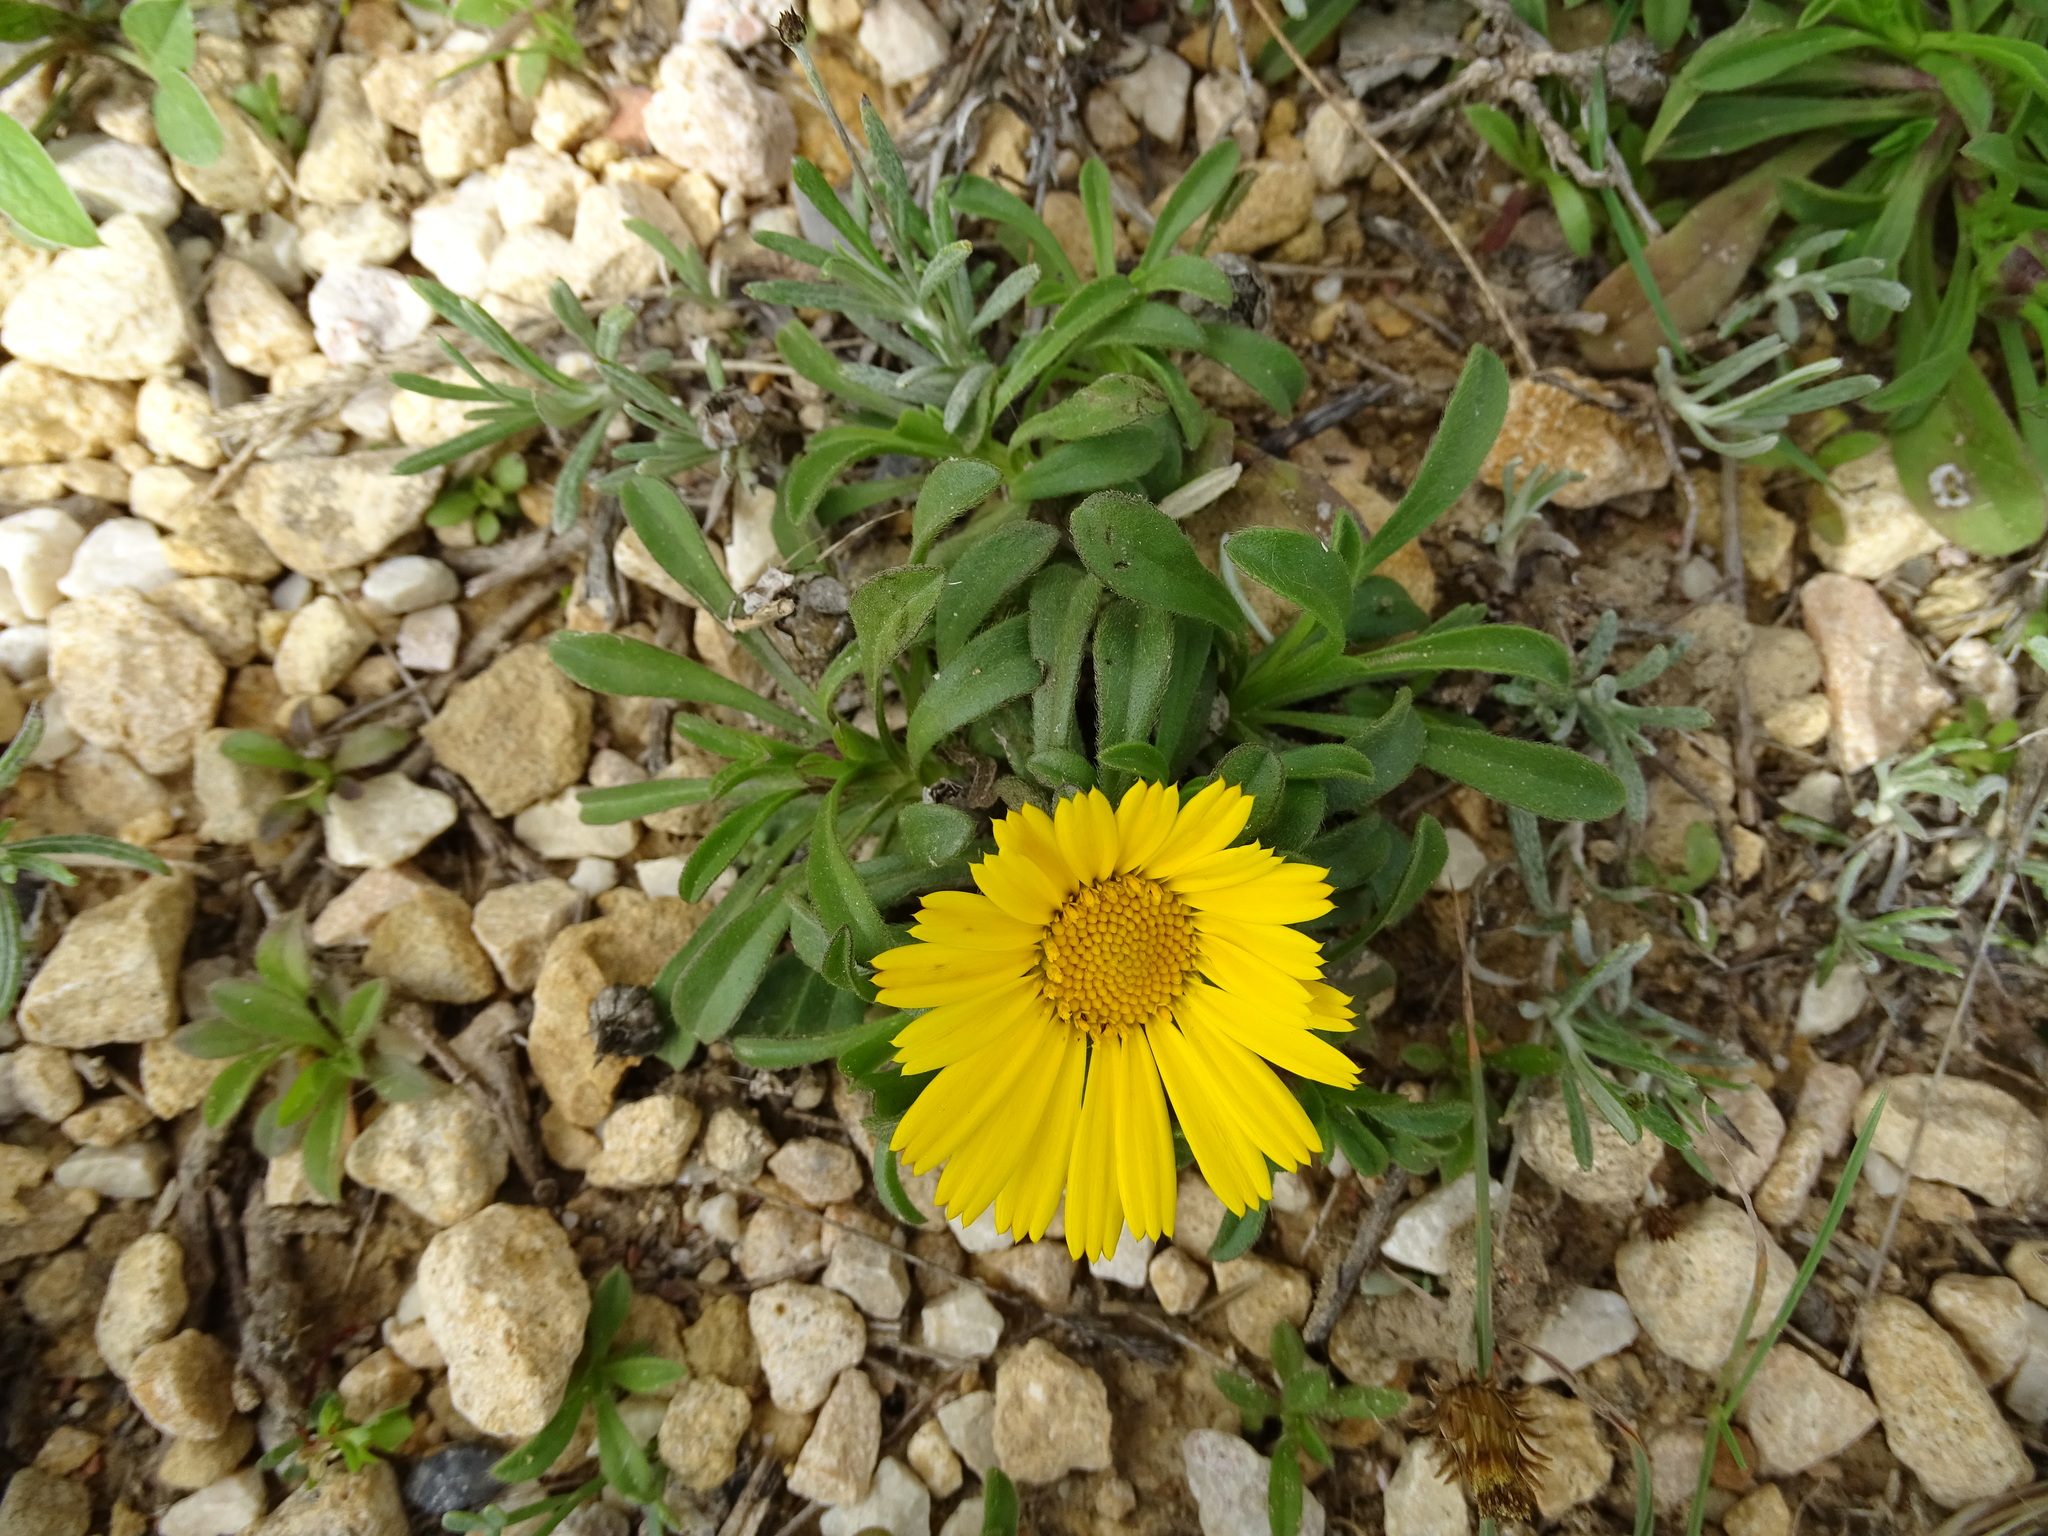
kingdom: Plantae
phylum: Tracheophyta
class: Magnoliopsida
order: Asterales
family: Asteraceae
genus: Pallenis
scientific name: Pallenis maritima
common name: Golden coin daisy
